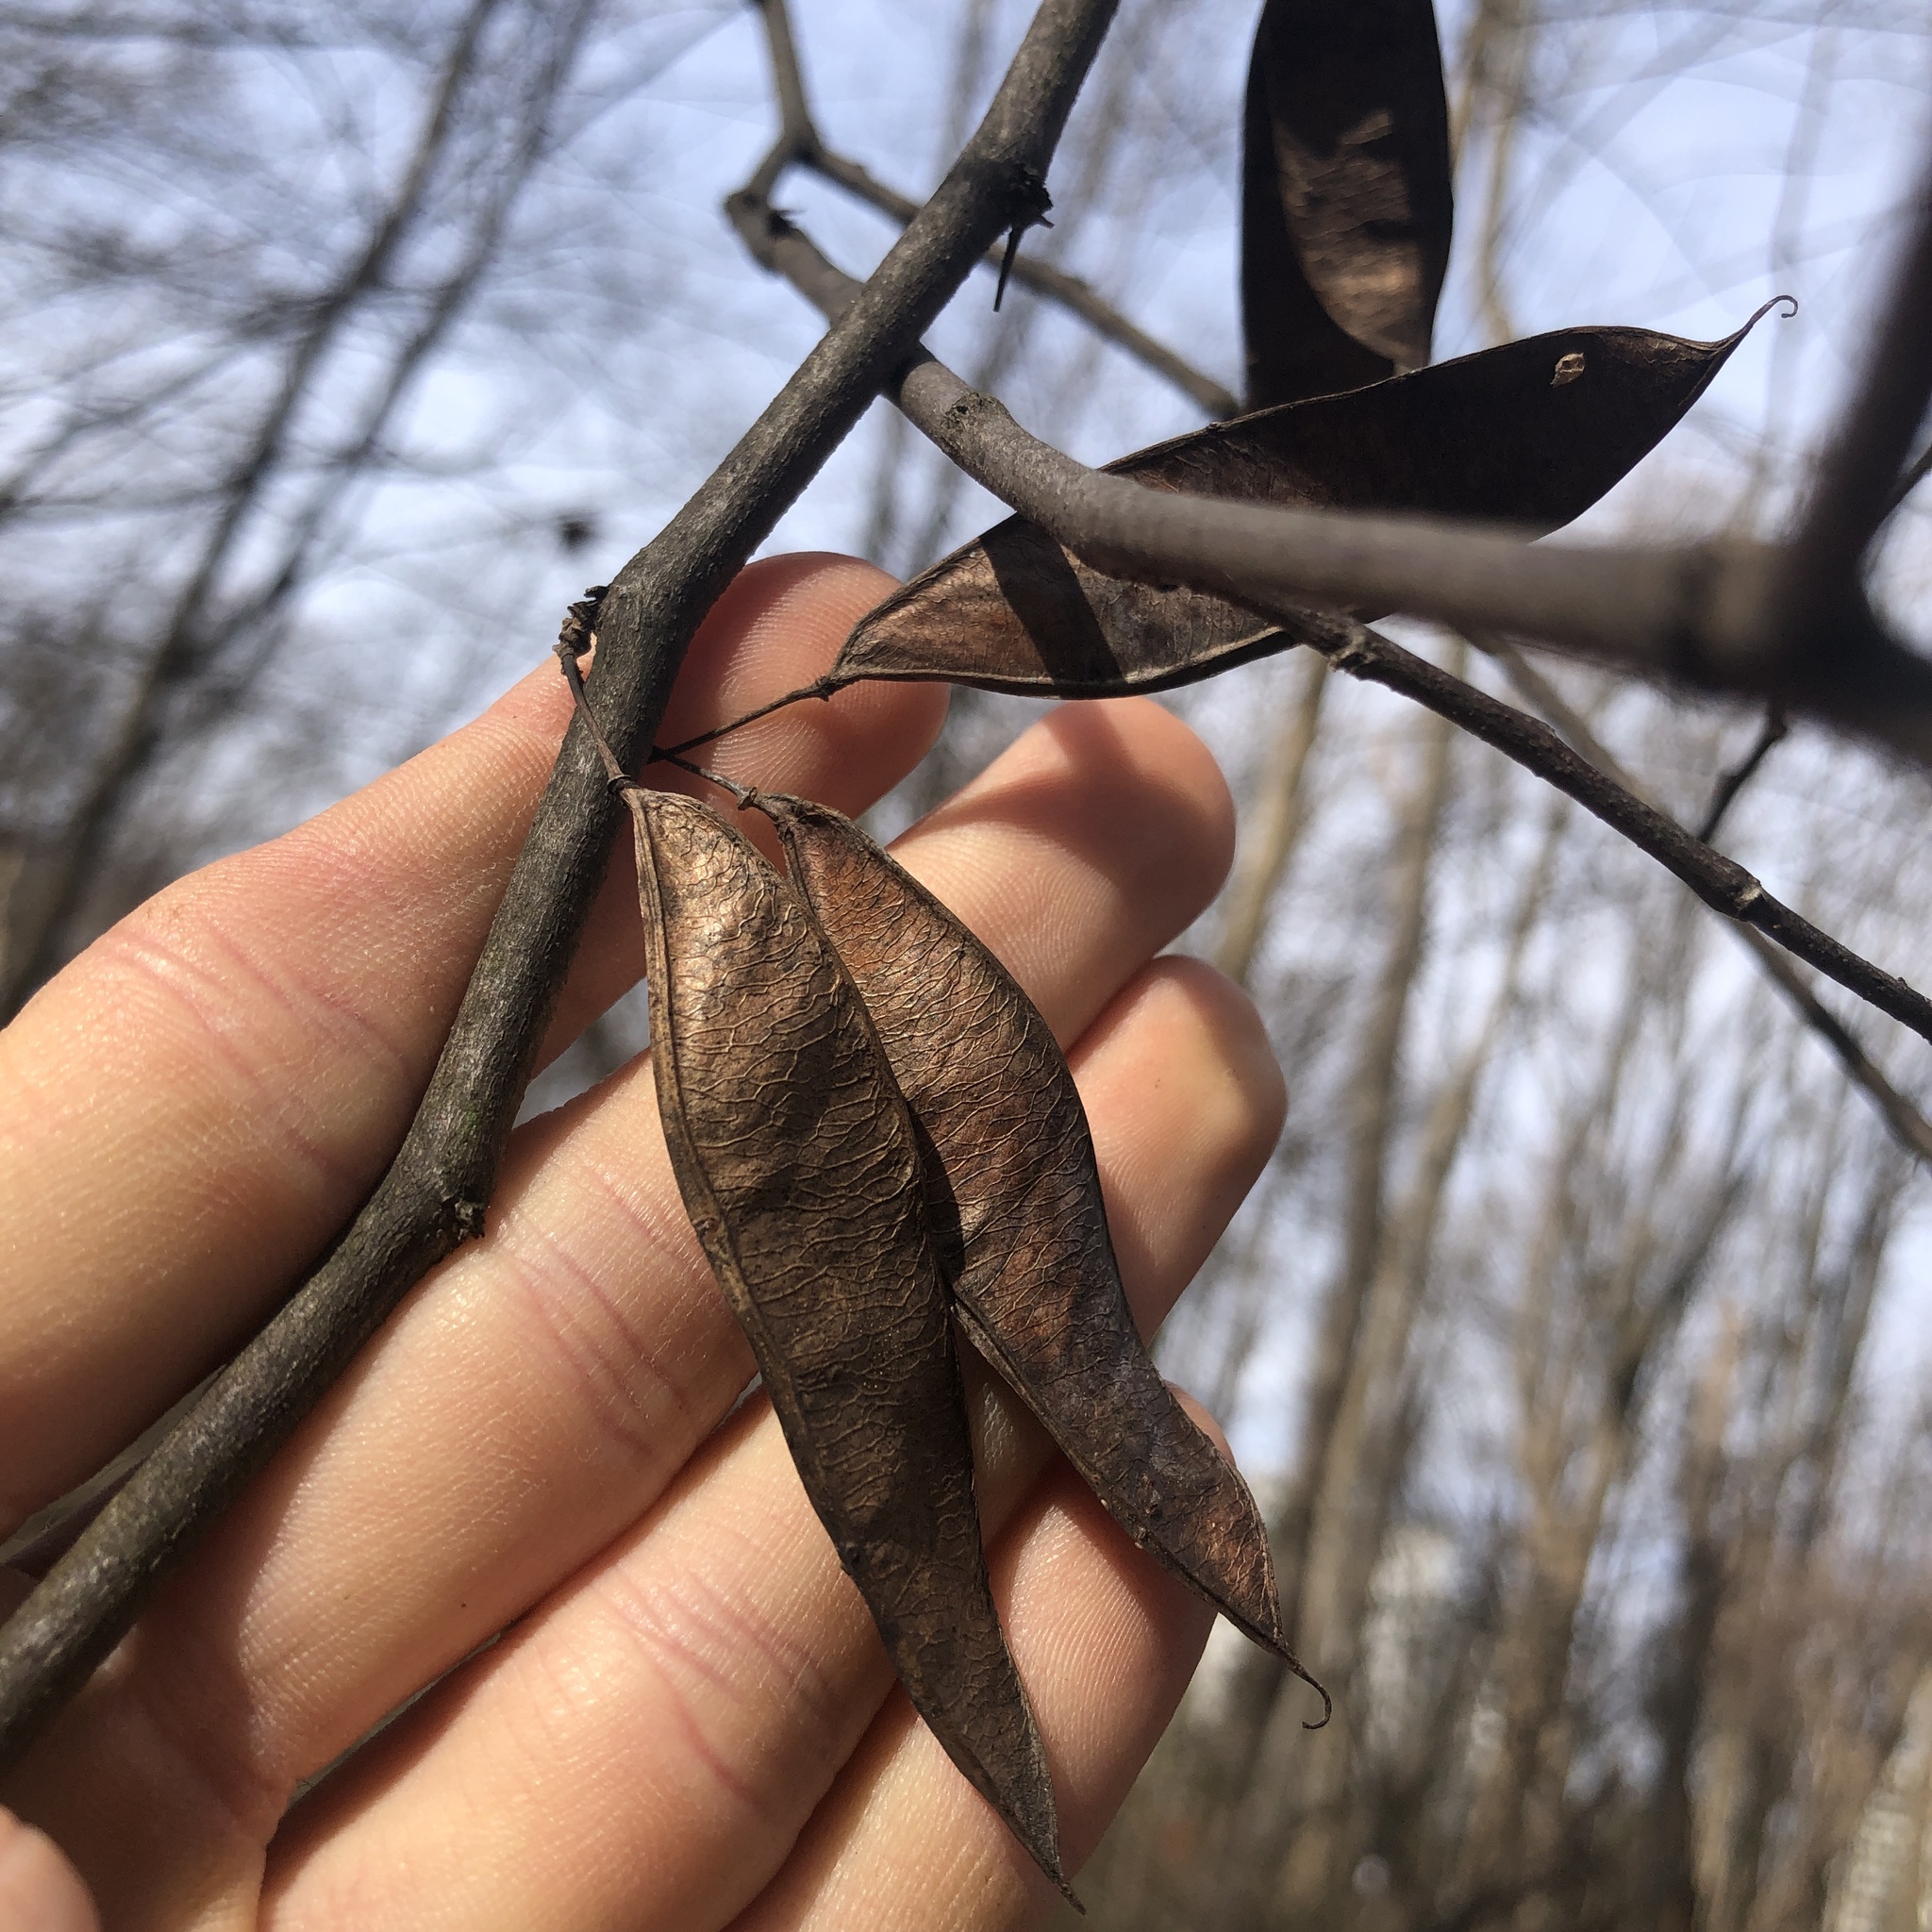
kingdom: Plantae
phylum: Tracheophyta
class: Magnoliopsida
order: Fabales
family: Fabaceae
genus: Cercis
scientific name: Cercis canadensis
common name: Eastern redbud
